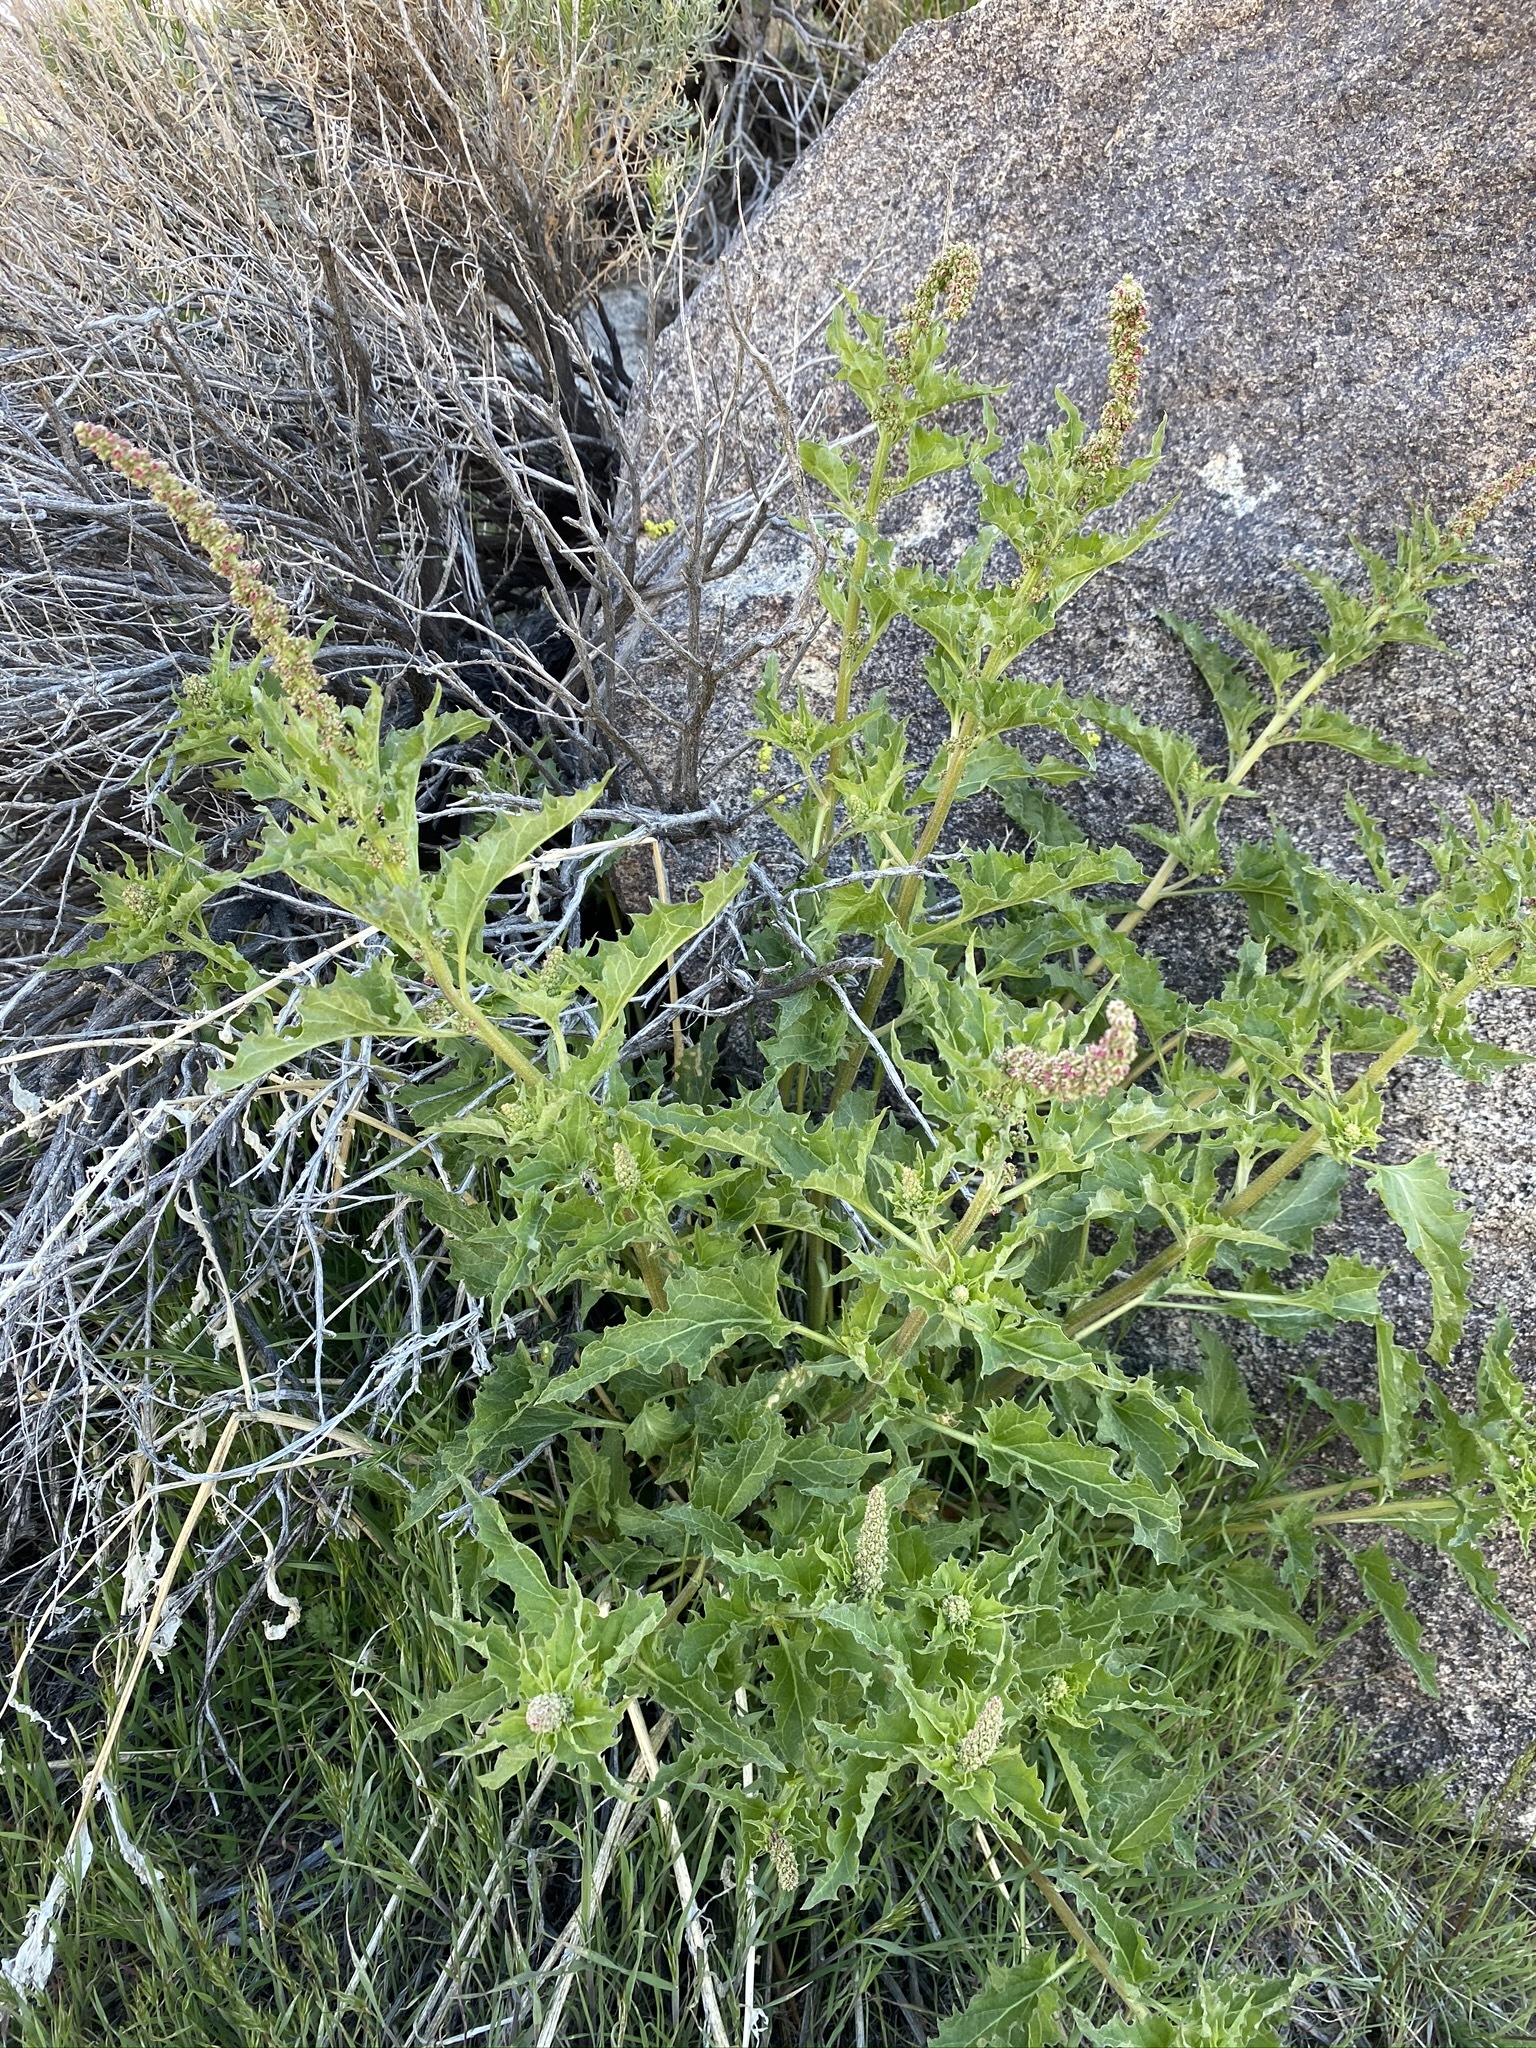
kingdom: Plantae
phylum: Tracheophyta
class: Magnoliopsida
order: Caryophyllales
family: Amaranthaceae
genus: Blitum
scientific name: Blitum californicum
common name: California goosefoot
